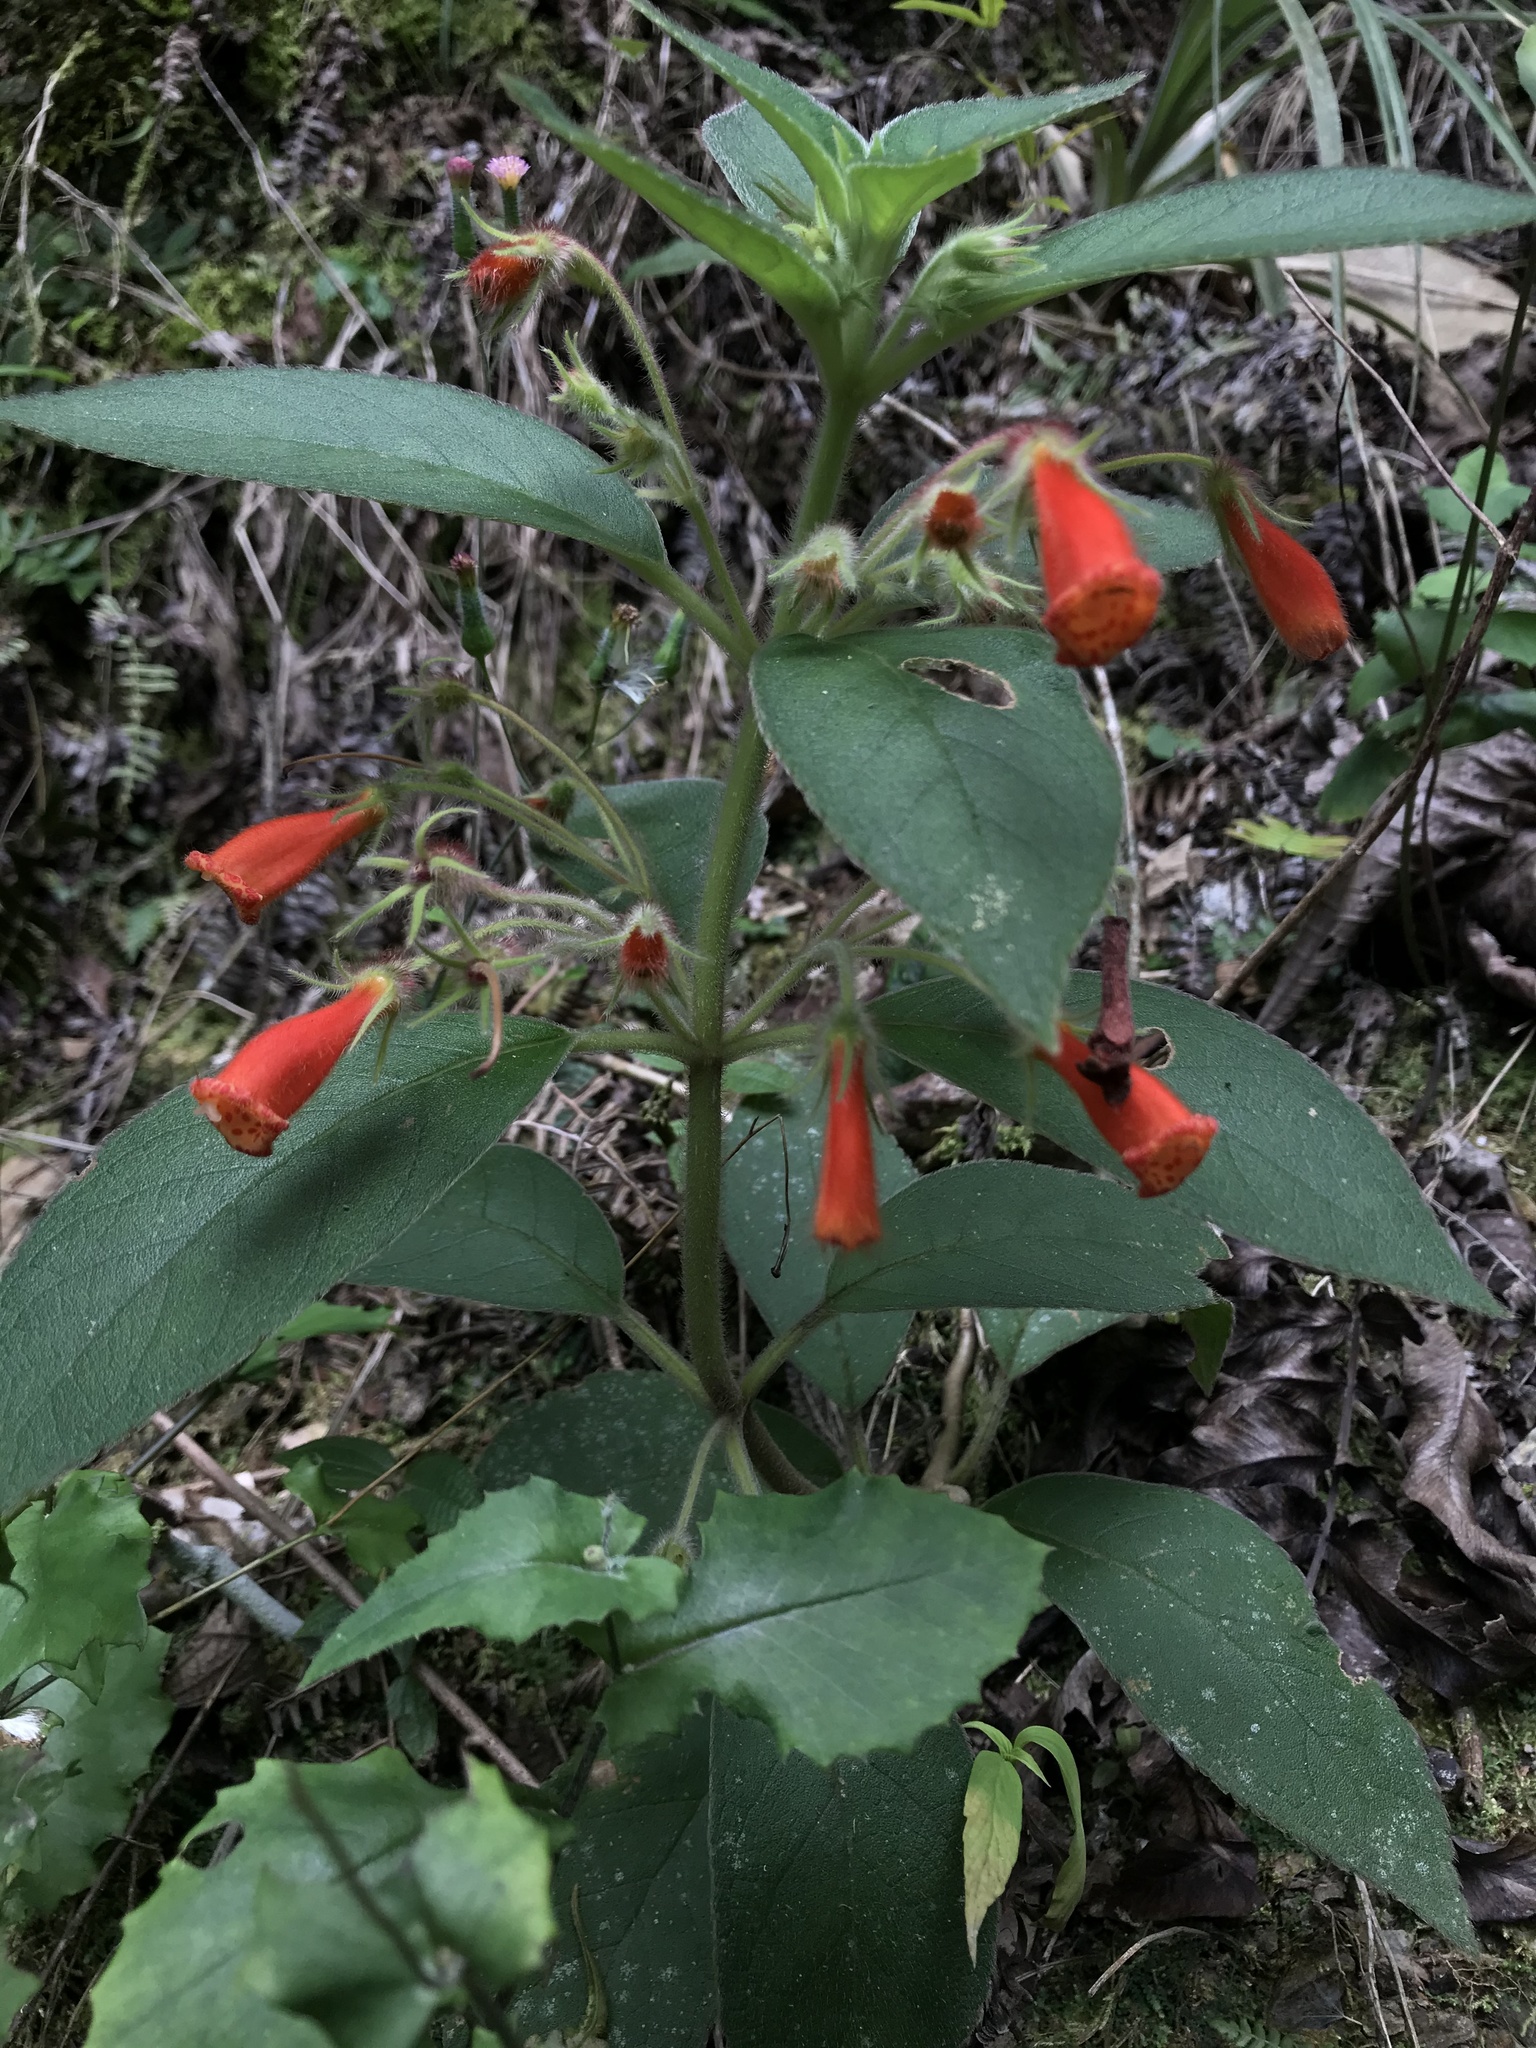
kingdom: Plantae
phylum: Tracheophyta
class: Magnoliopsida
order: Lamiales
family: Gesneriaceae
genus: Kohleria
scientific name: Kohleria hirsuta
